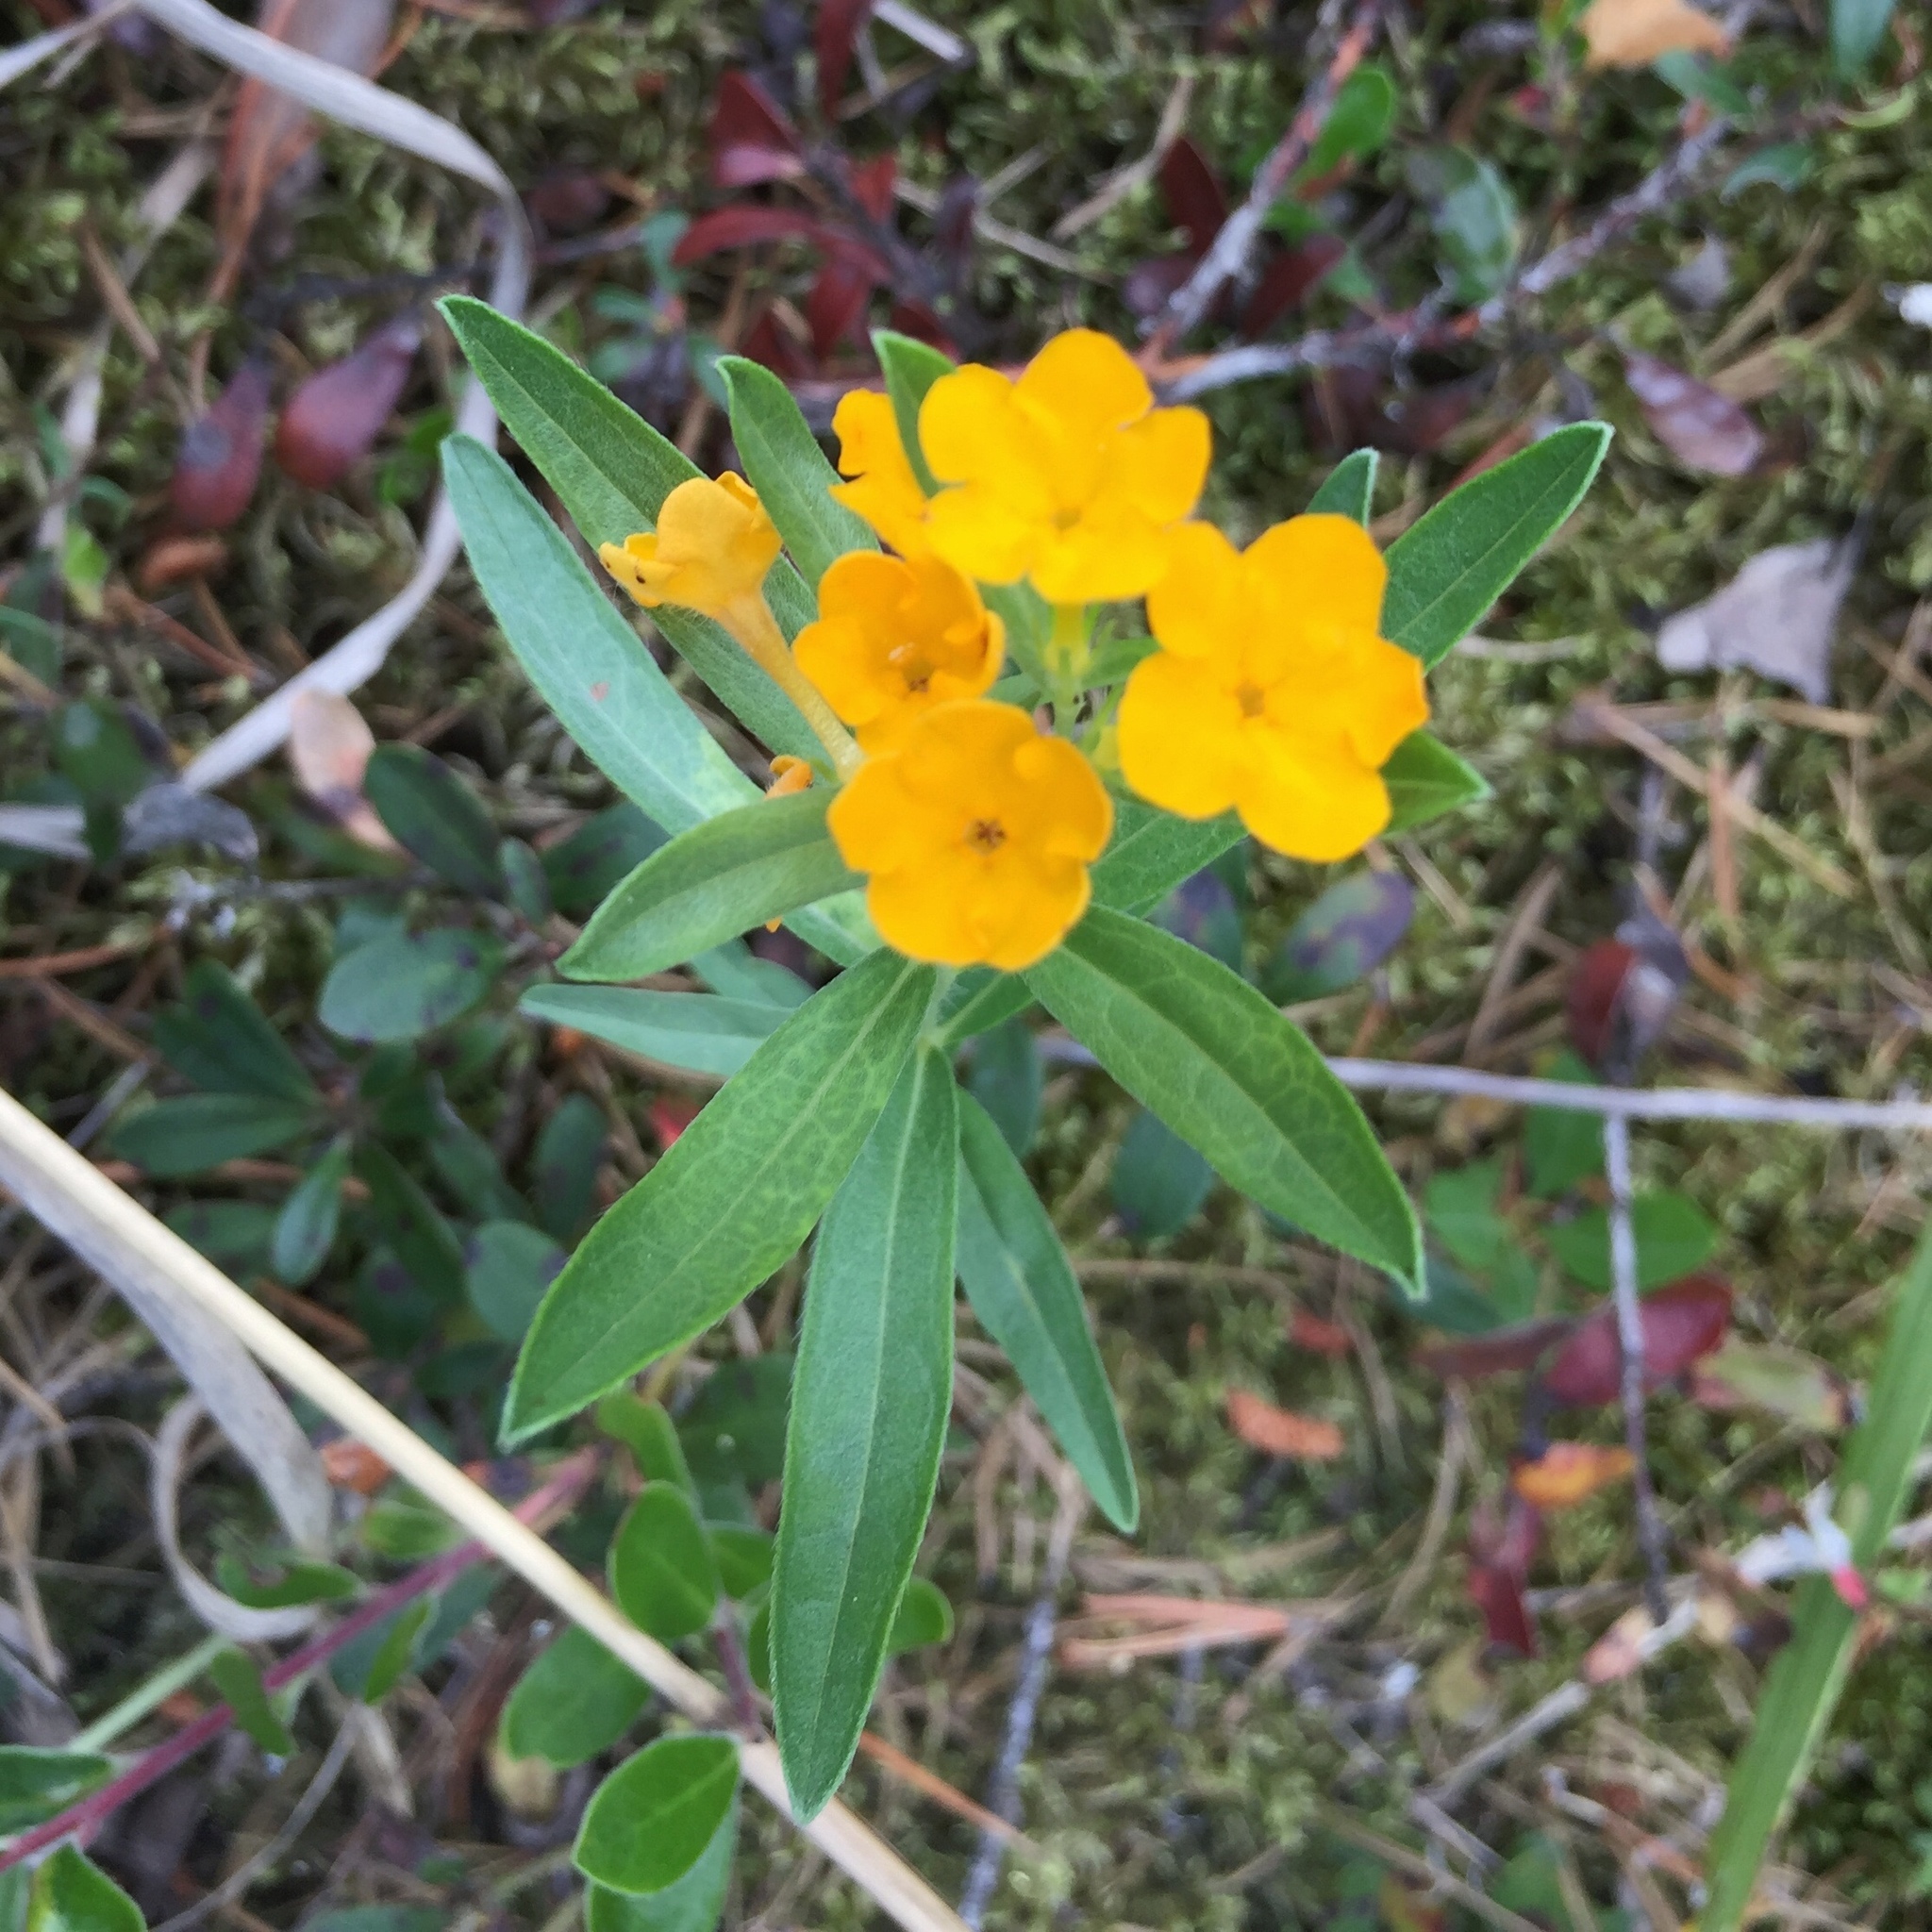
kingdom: Plantae
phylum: Tracheophyta
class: Magnoliopsida
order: Boraginales
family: Boraginaceae
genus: Lithospermum
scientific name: Lithospermum canescens
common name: Hoary puccoon
